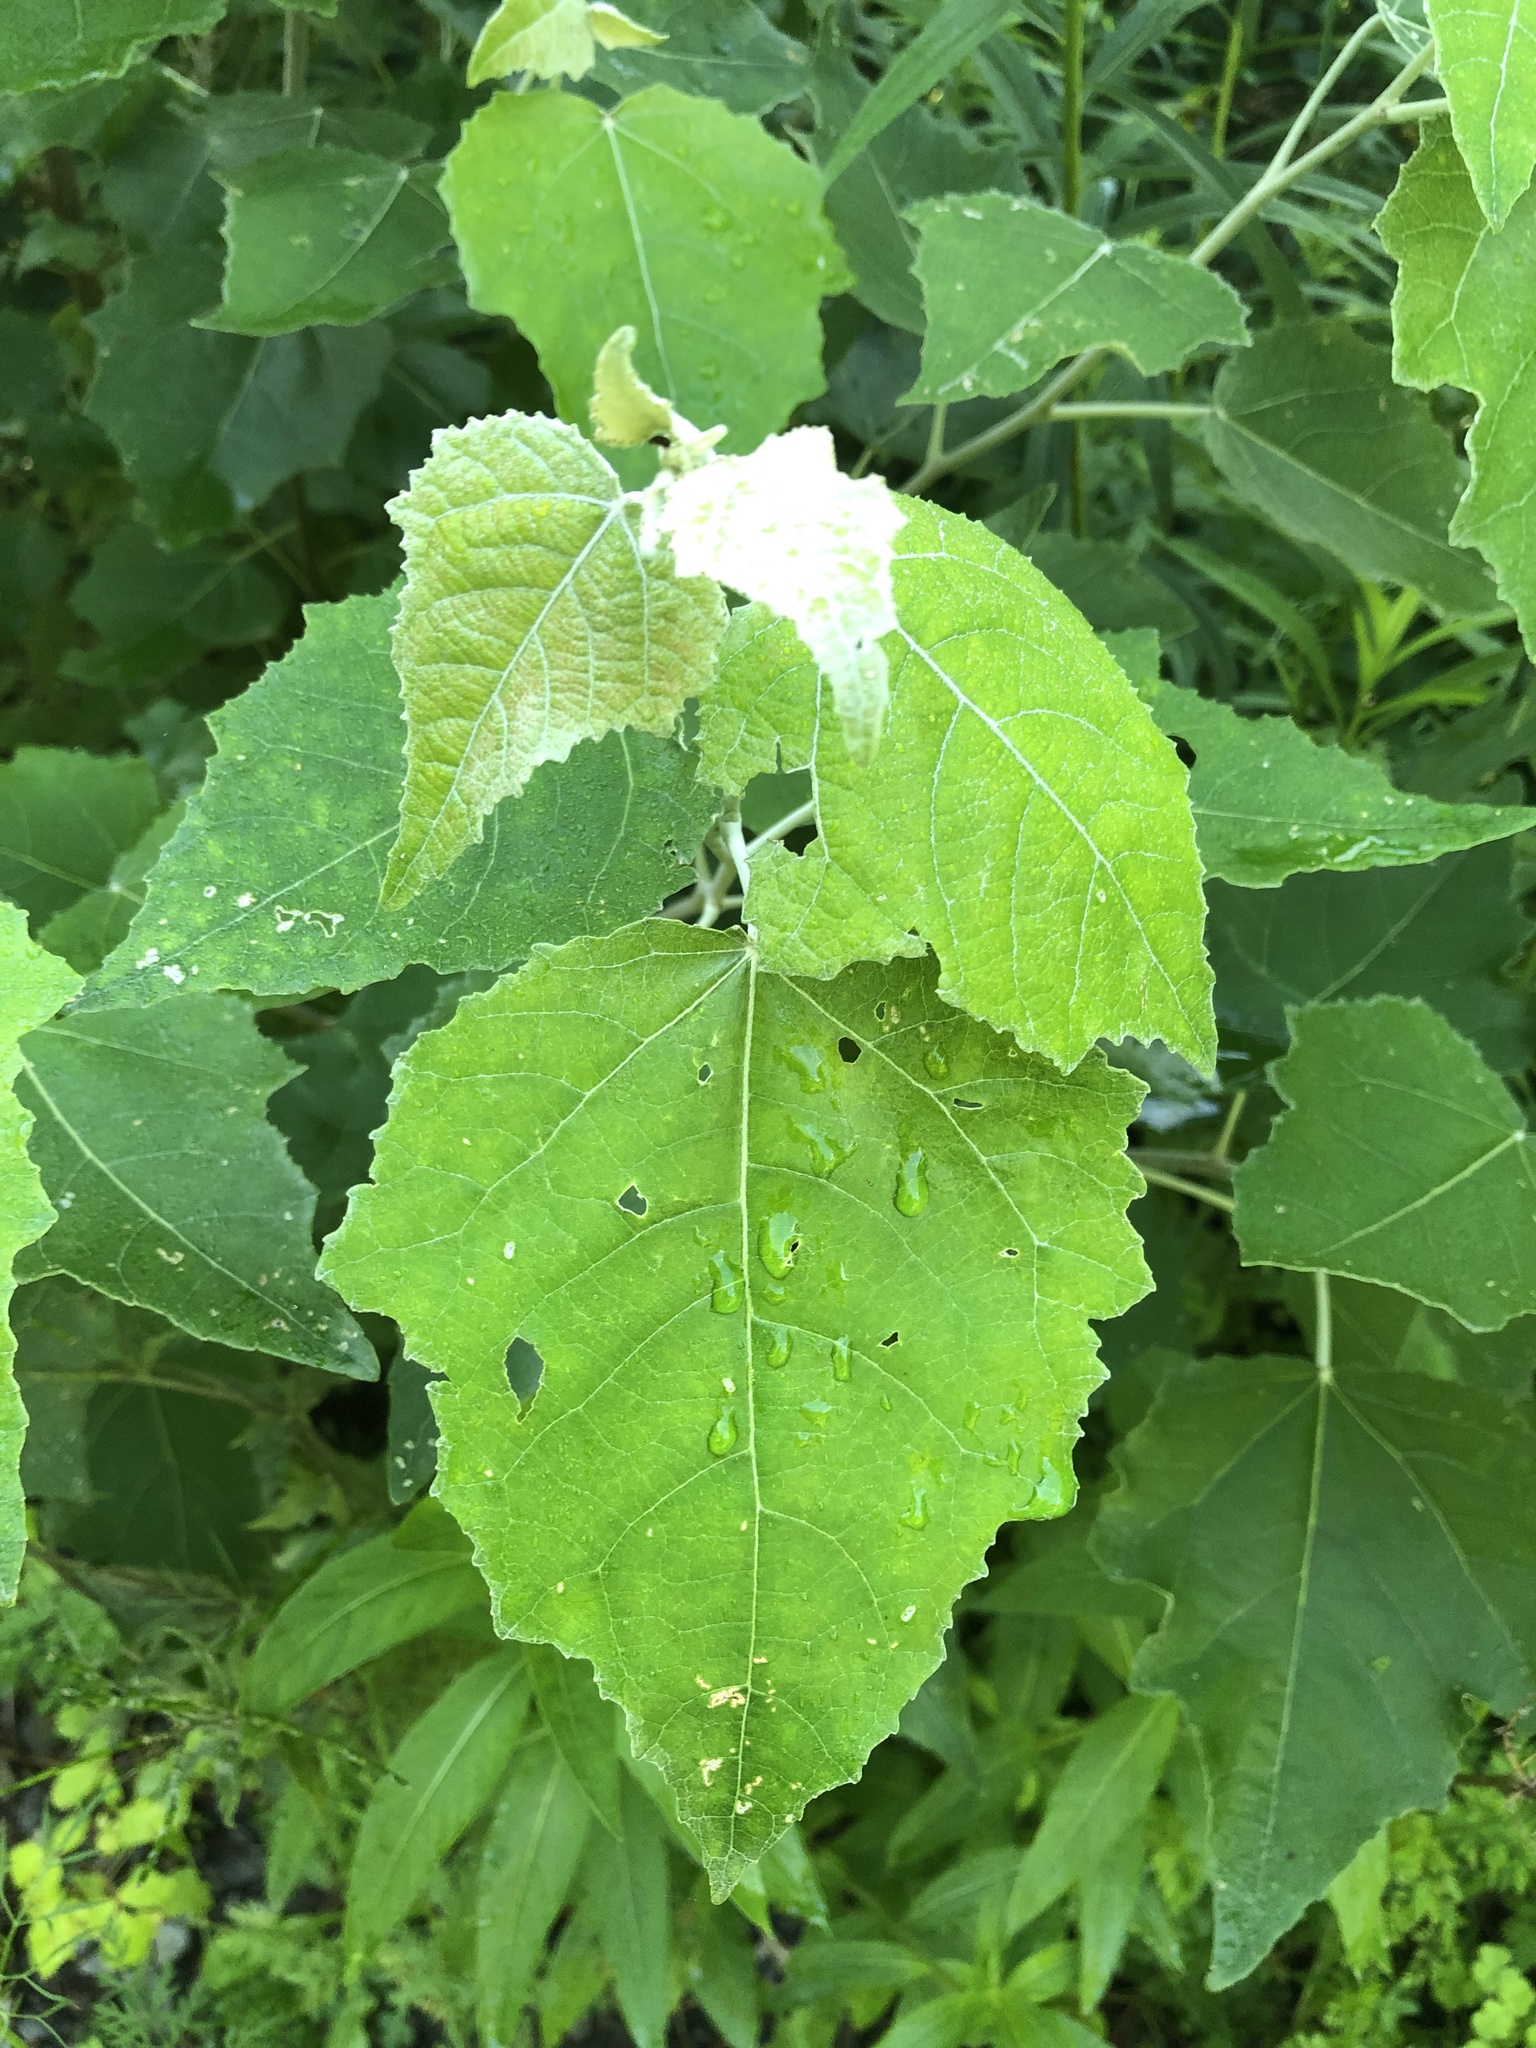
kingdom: Plantae
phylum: Tracheophyta
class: Magnoliopsida
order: Malpighiales
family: Salicaceae
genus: Populus
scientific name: Populus alba
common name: White poplar
